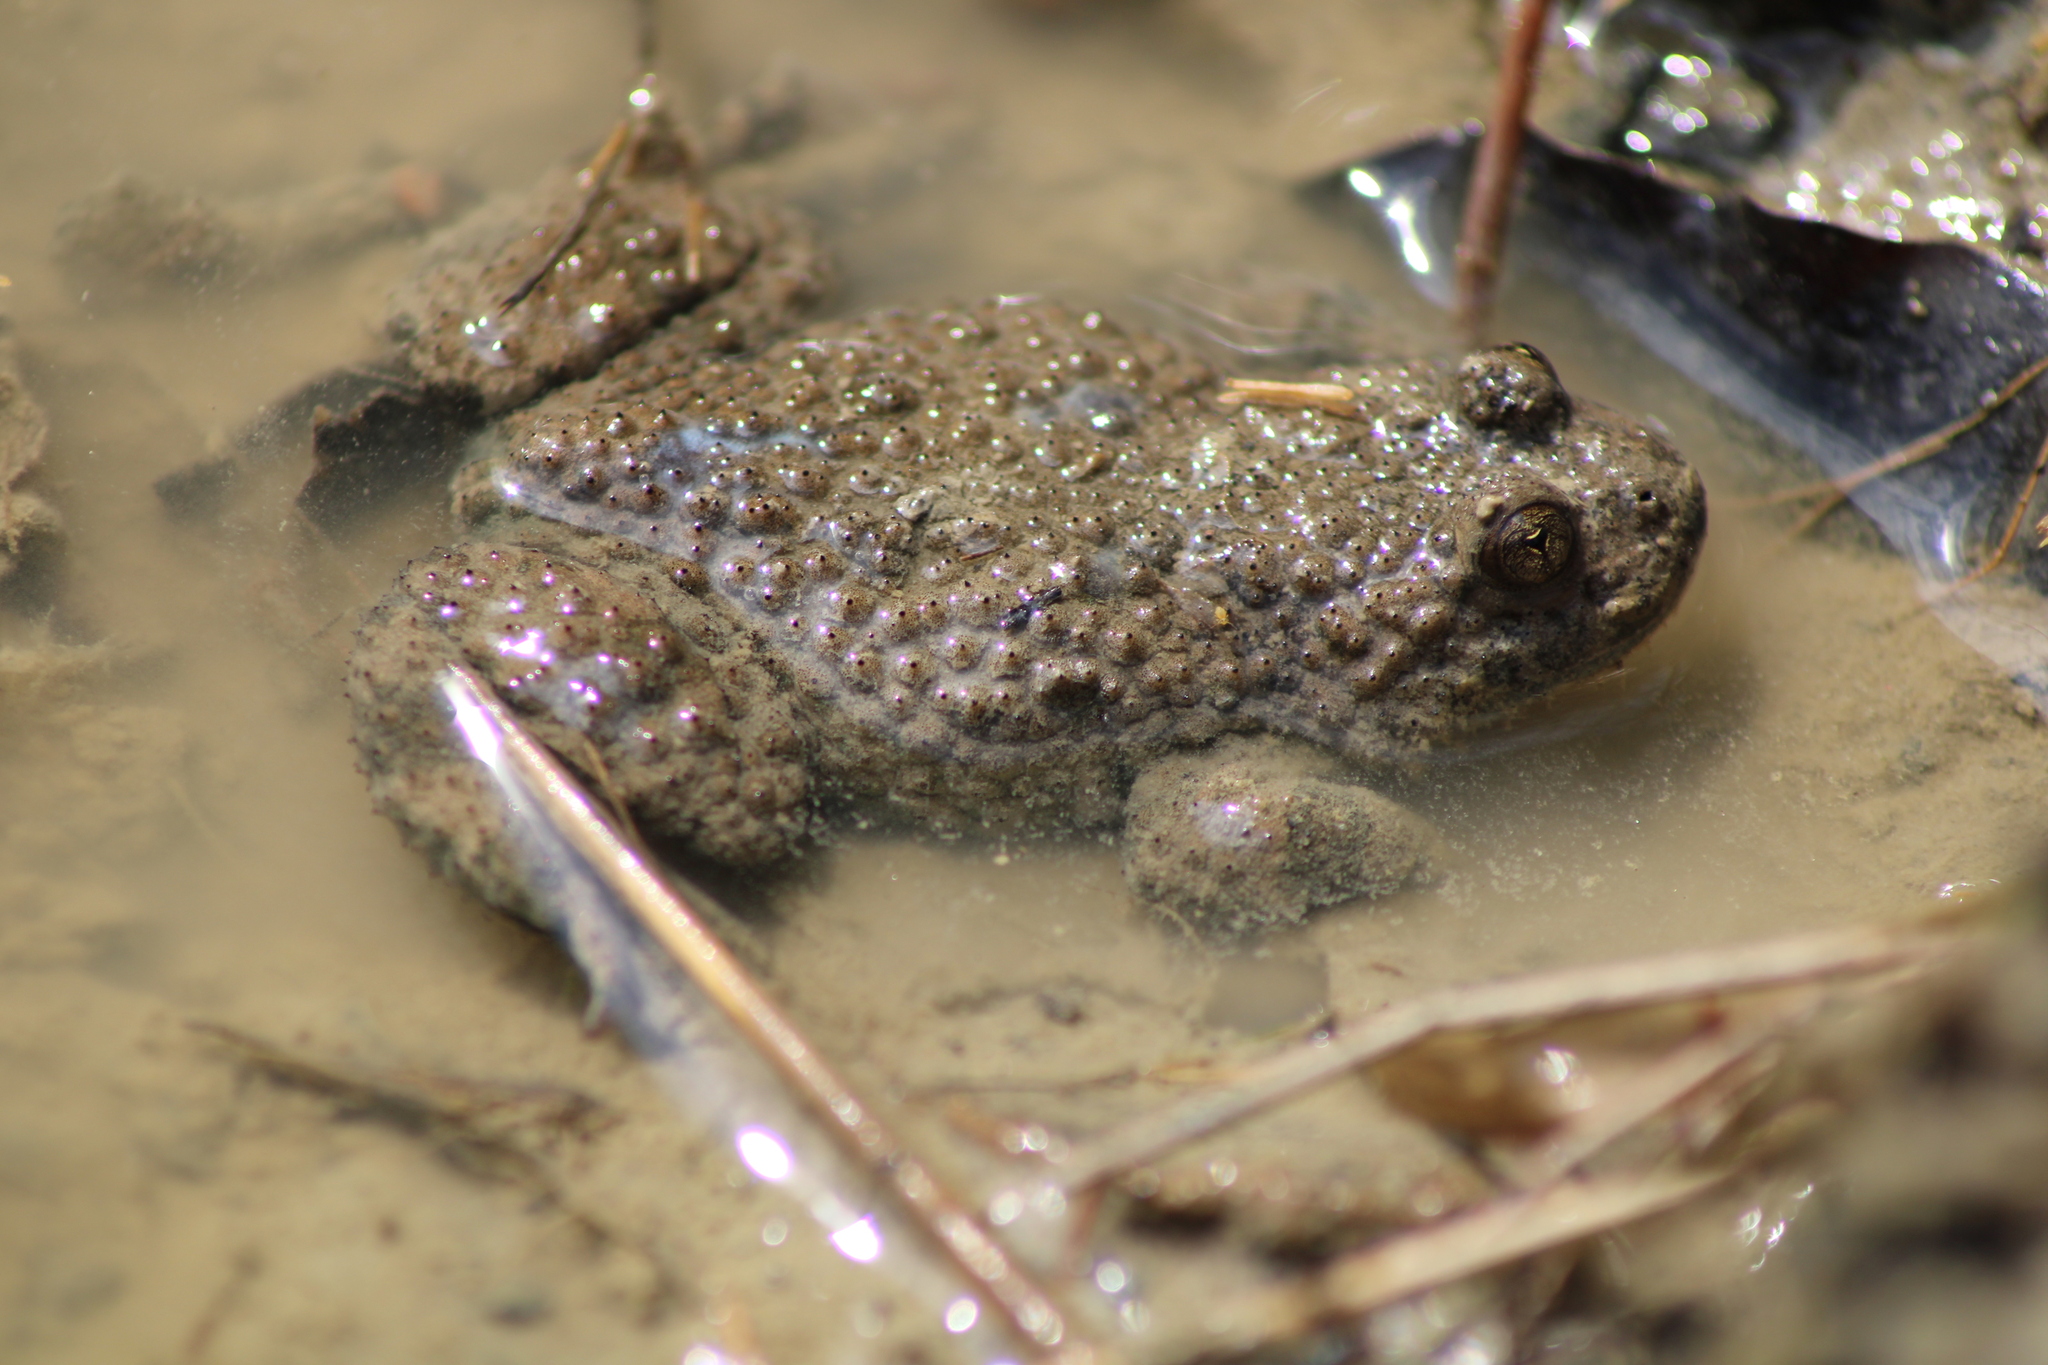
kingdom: Animalia
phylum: Chordata
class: Amphibia
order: Anura
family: Bombinatoridae
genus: Bombina
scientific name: Bombina variegata
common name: Yellow-bellied toad
